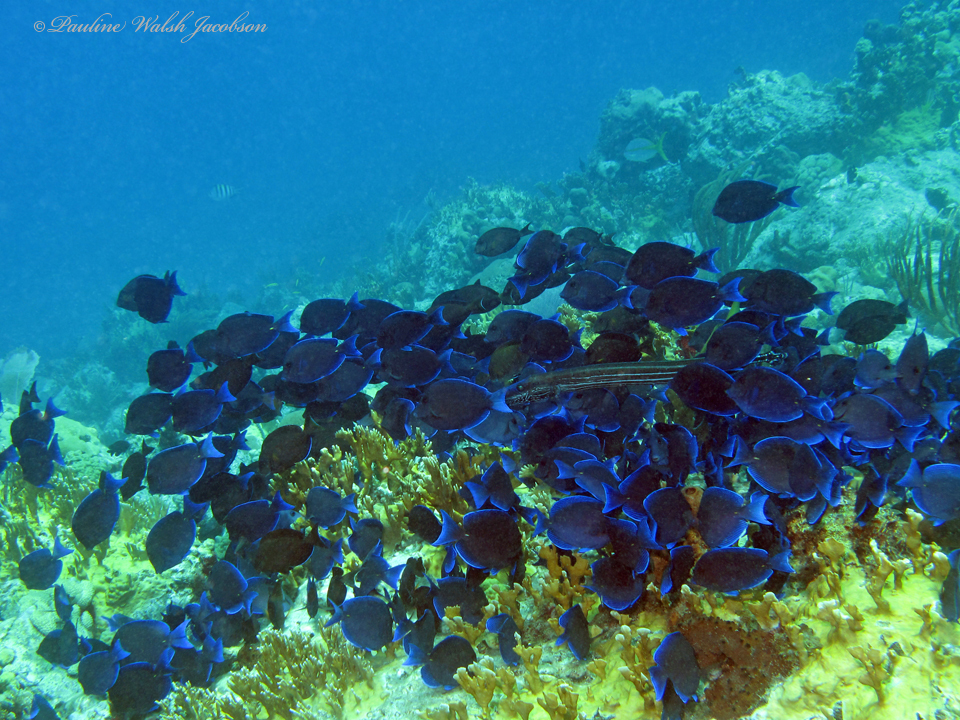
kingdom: Animalia
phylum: Chordata
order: Perciformes
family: Acanthuridae
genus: Acanthurus
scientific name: Acanthurus coeruleus
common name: Blue tang
